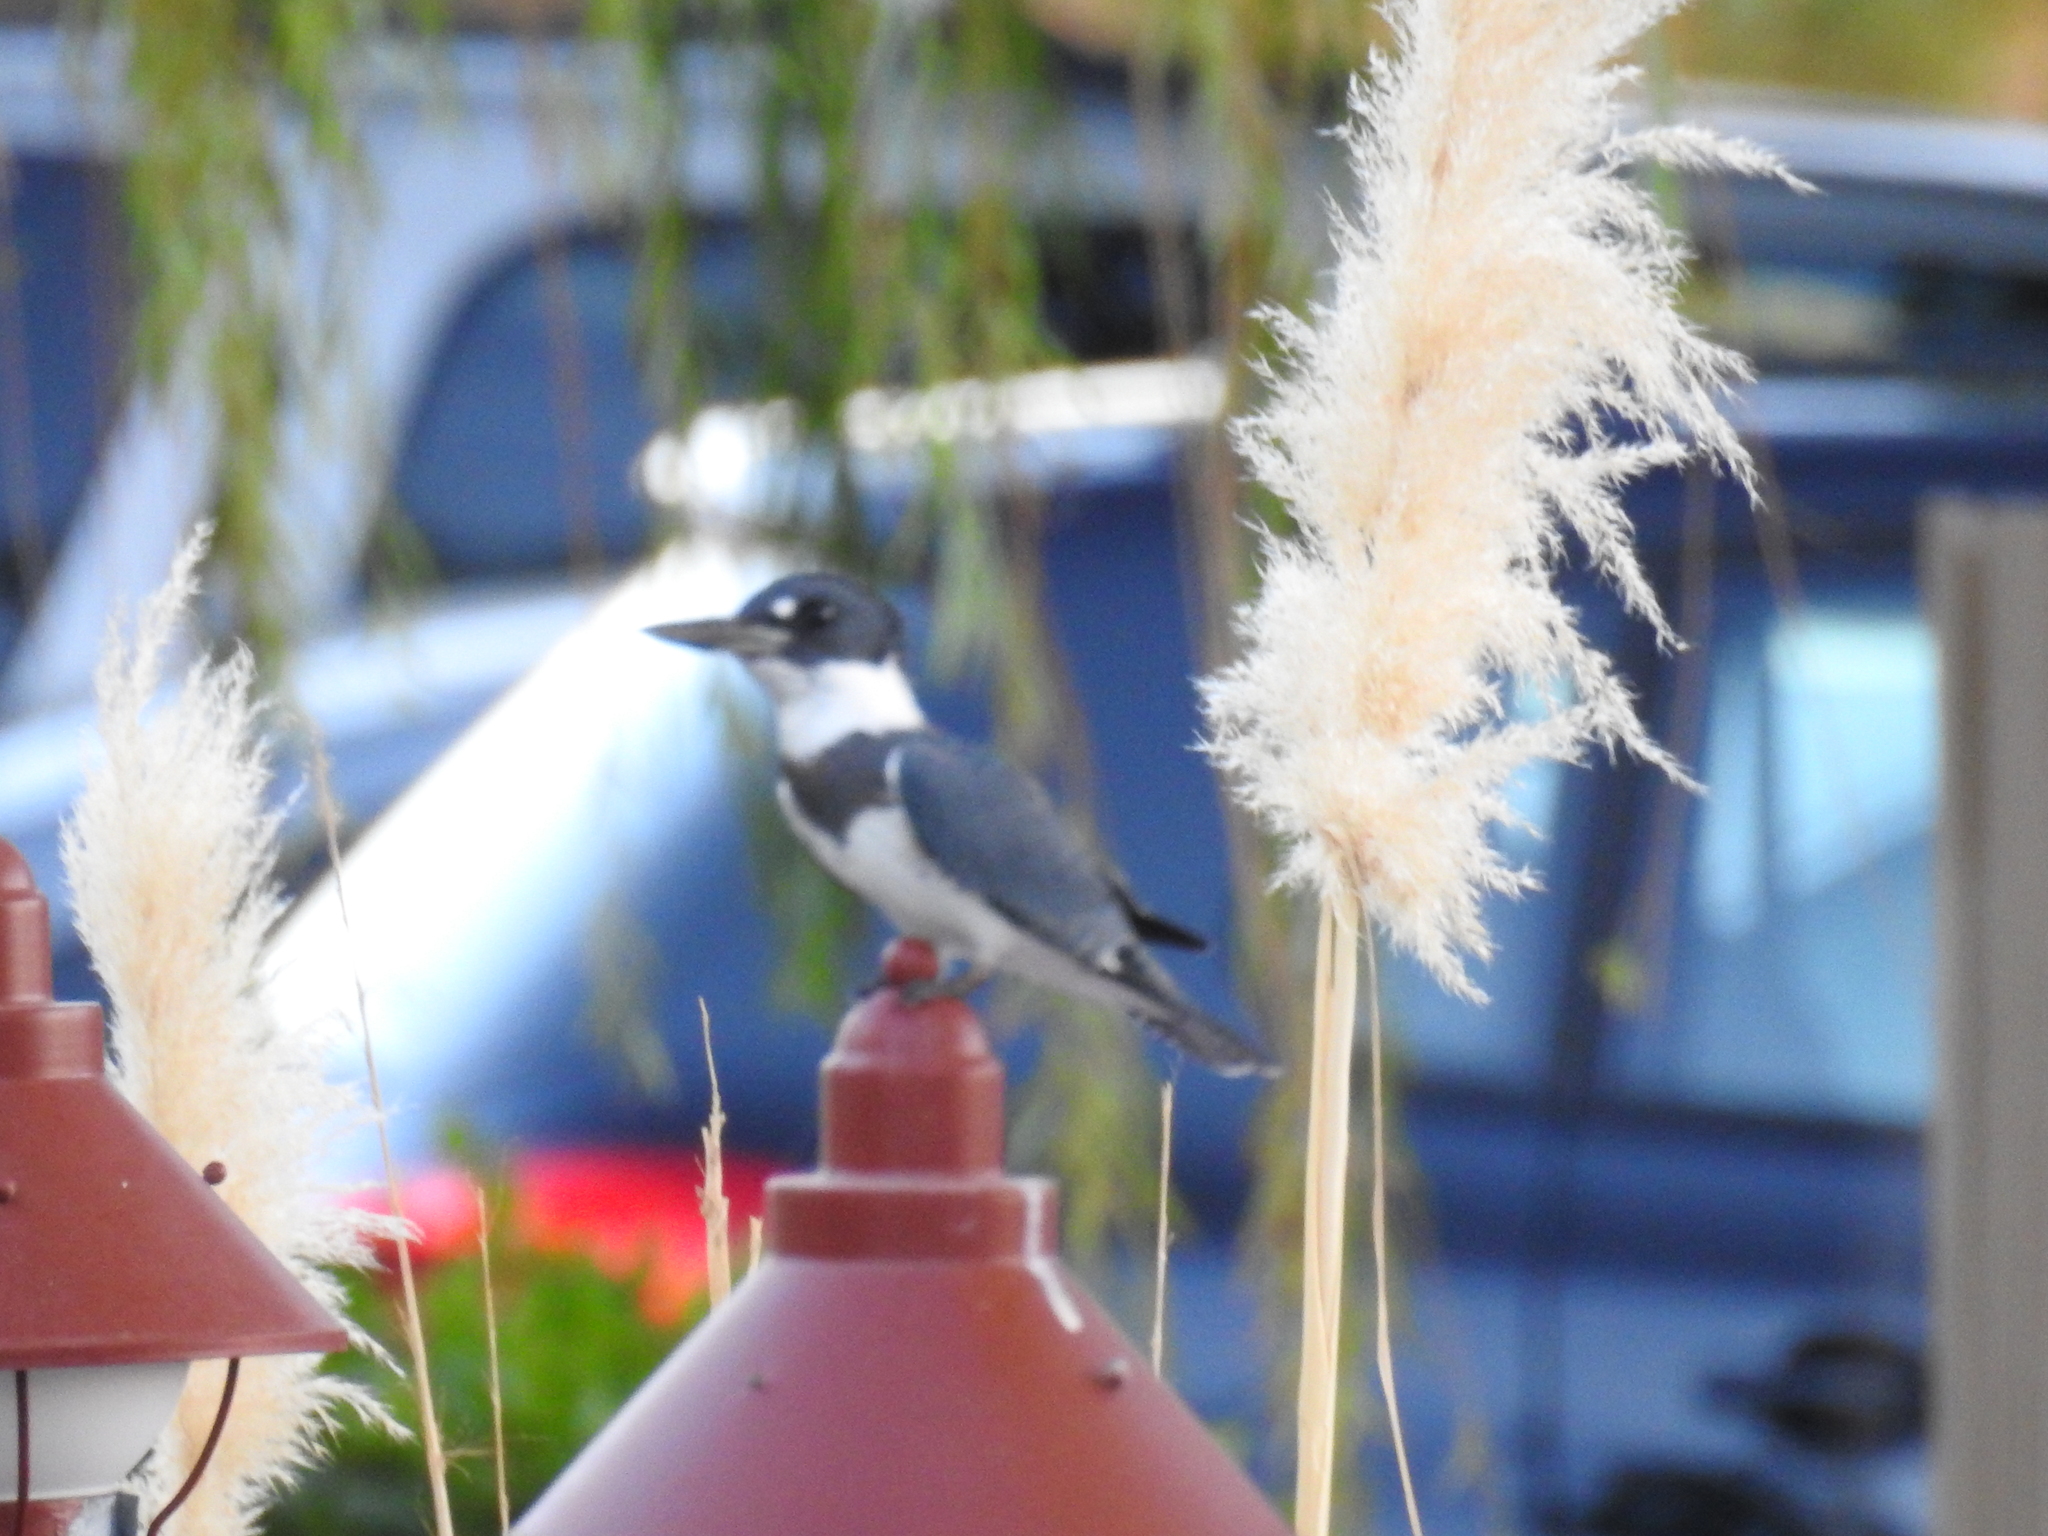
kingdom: Animalia
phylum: Chordata
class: Aves
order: Coraciiformes
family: Alcedinidae
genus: Megaceryle
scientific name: Megaceryle alcyon
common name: Belted kingfisher
